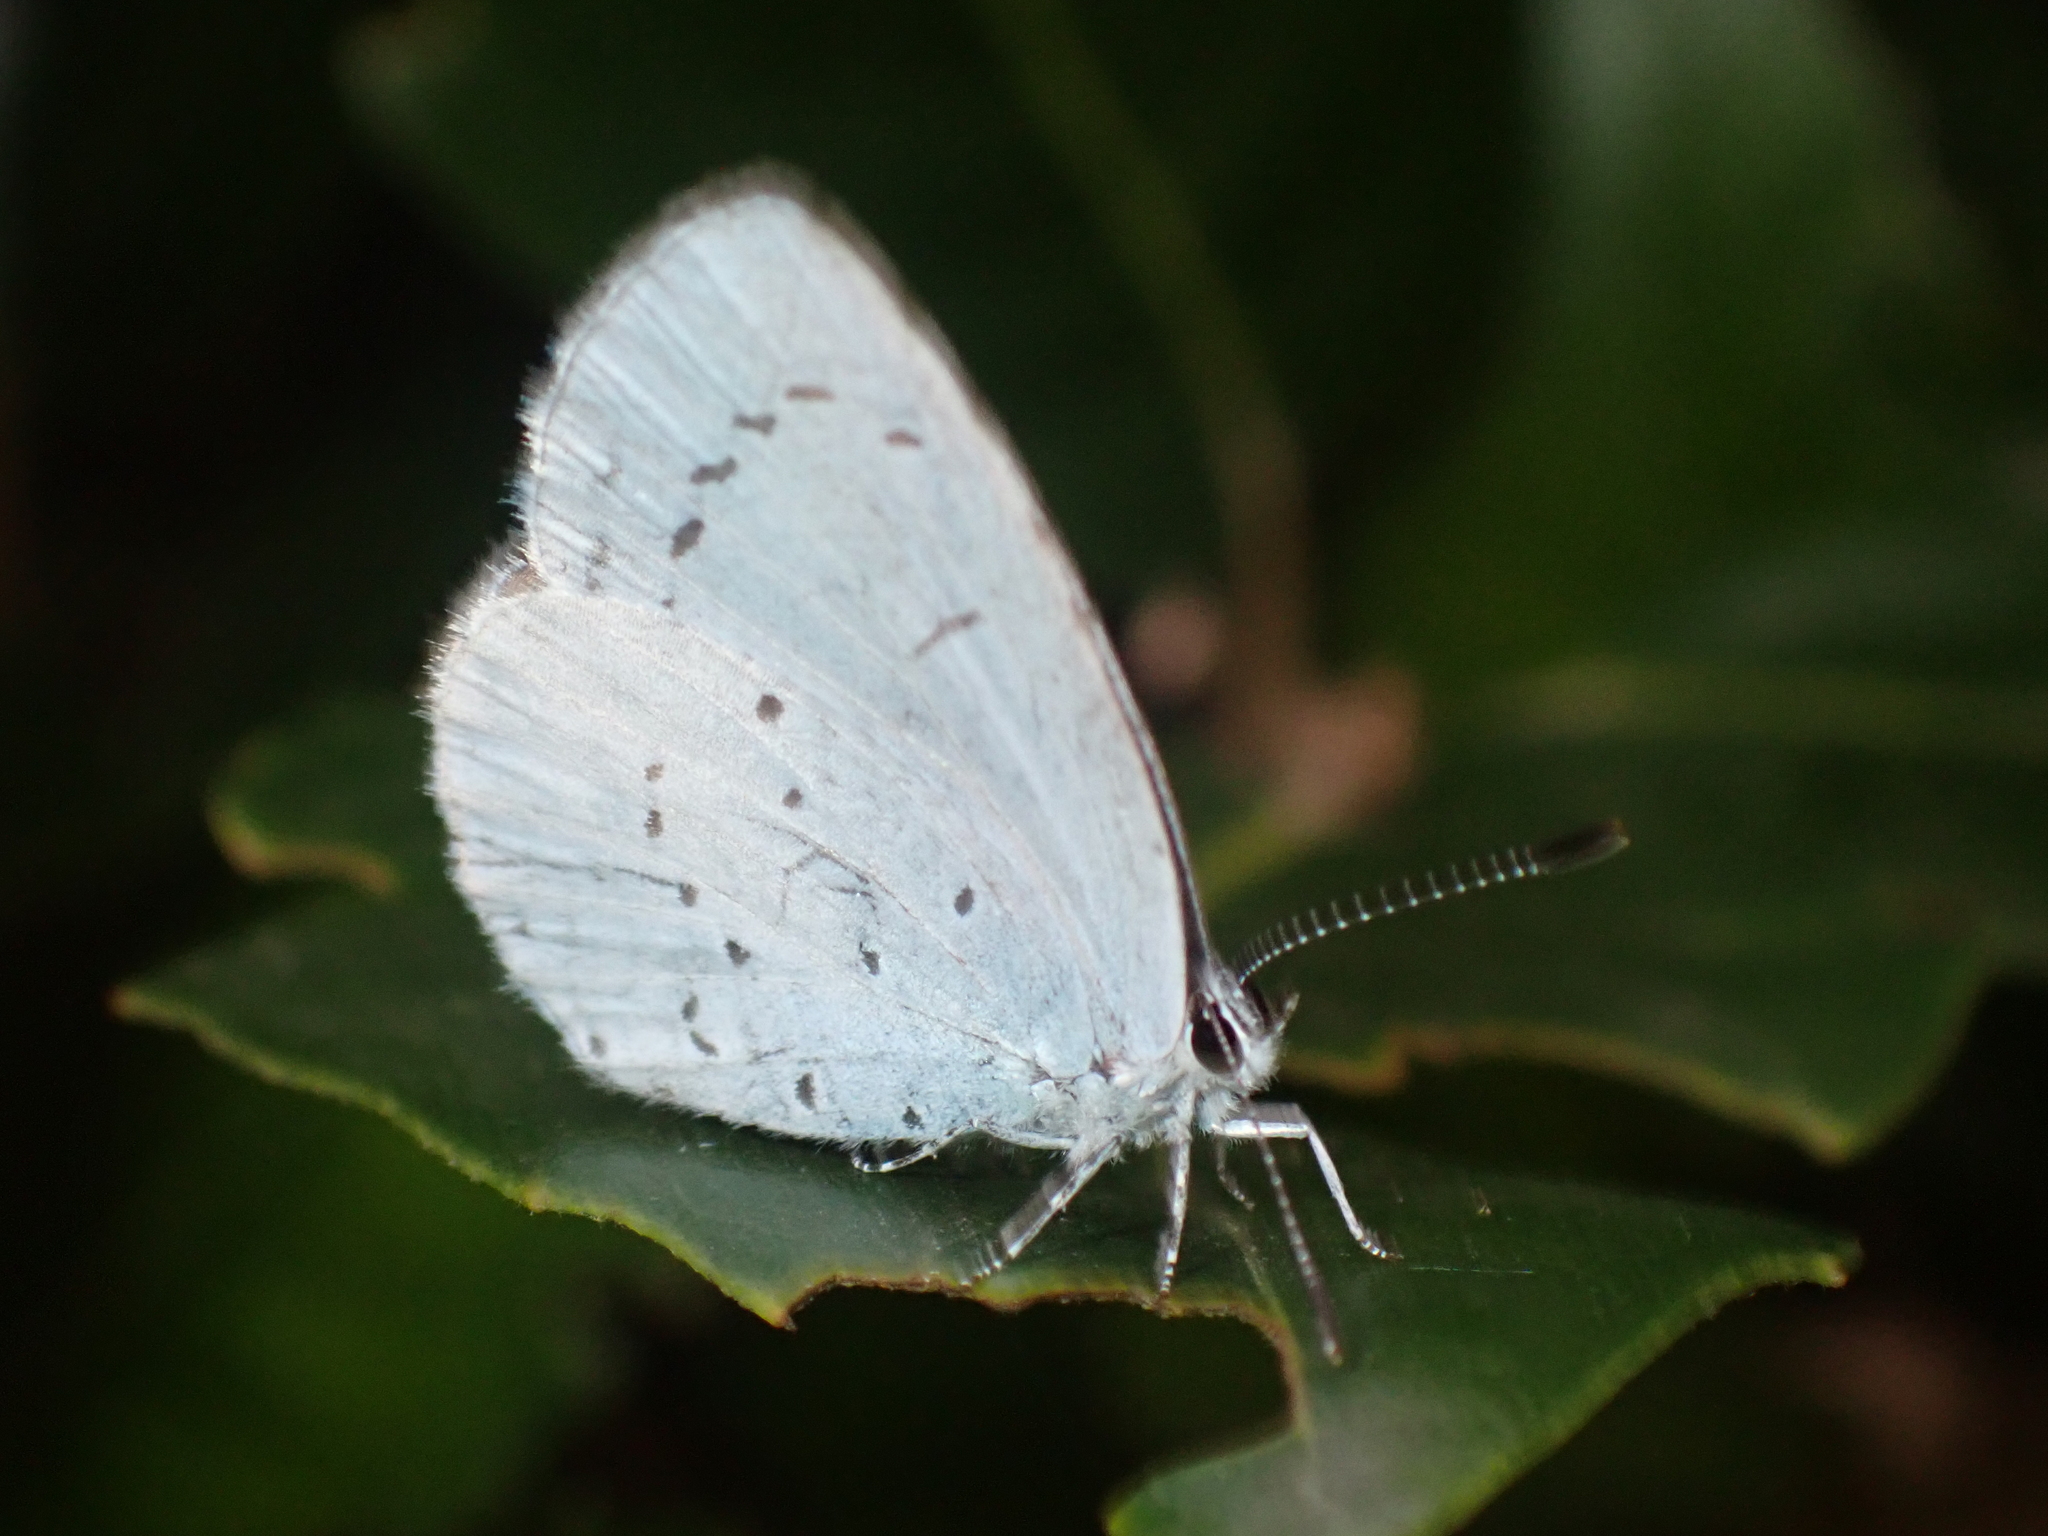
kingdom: Animalia
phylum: Arthropoda
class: Insecta
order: Lepidoptera
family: Lycaenidae
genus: Celastrina
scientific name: Celastrina argiolus
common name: Holly blue
